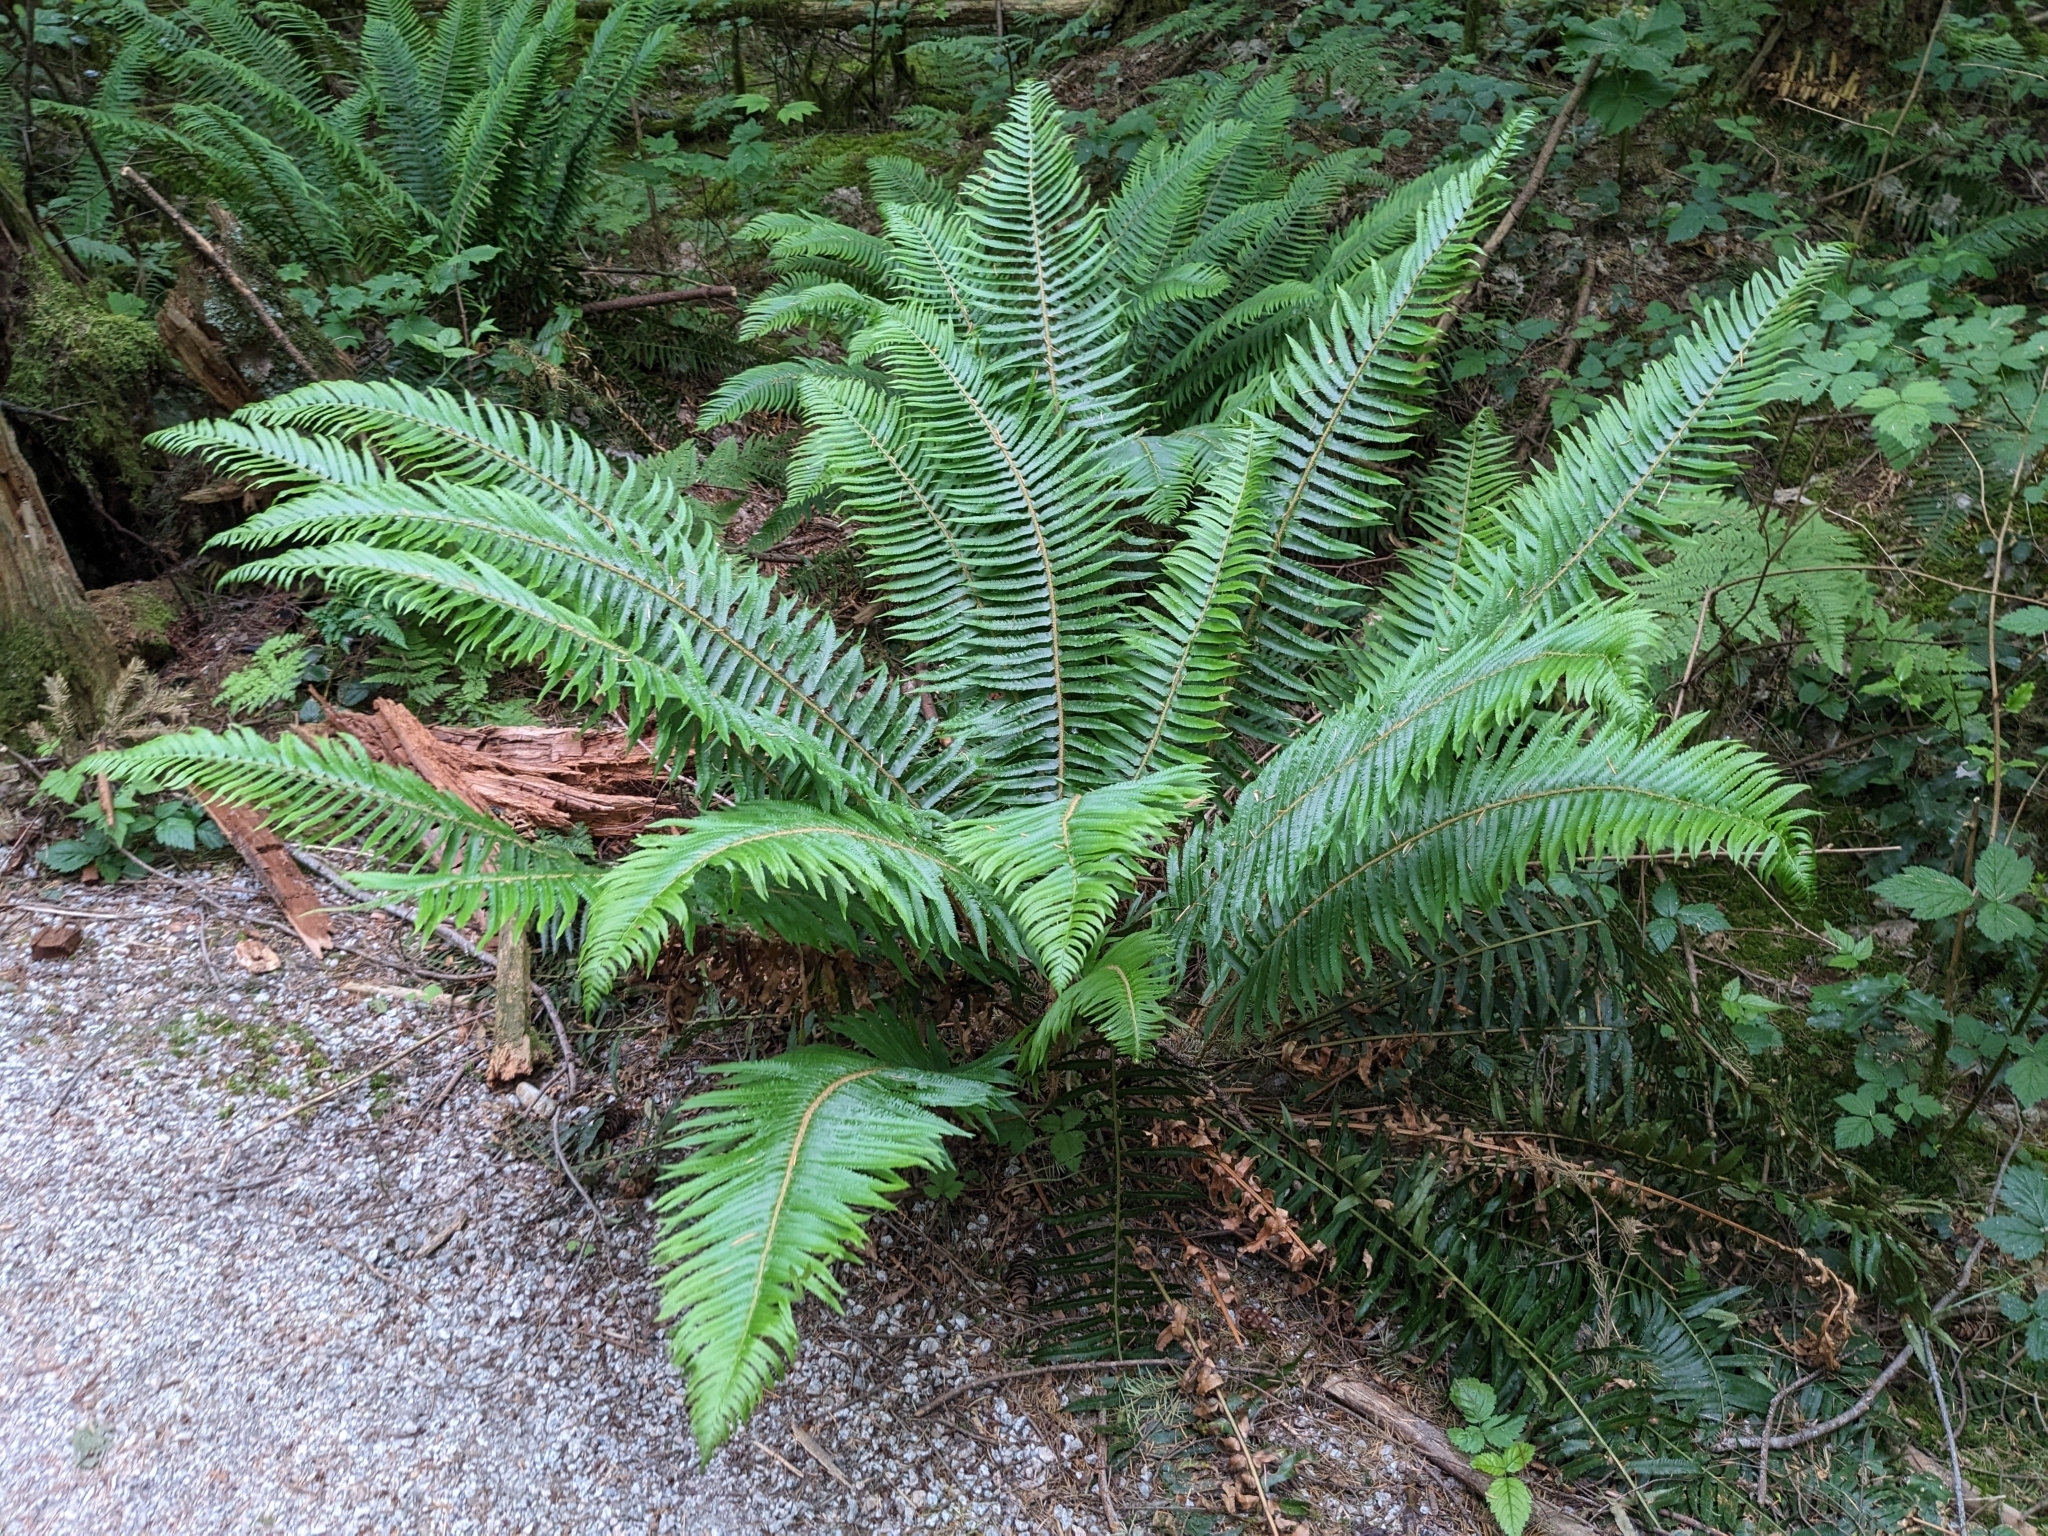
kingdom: Plantae
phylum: Tracheophyta
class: Polypodiopsida
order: Polypodiales
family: Dryopteridaceae
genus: Polystichum
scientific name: Polystichum munitum
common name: Western sword-fern
